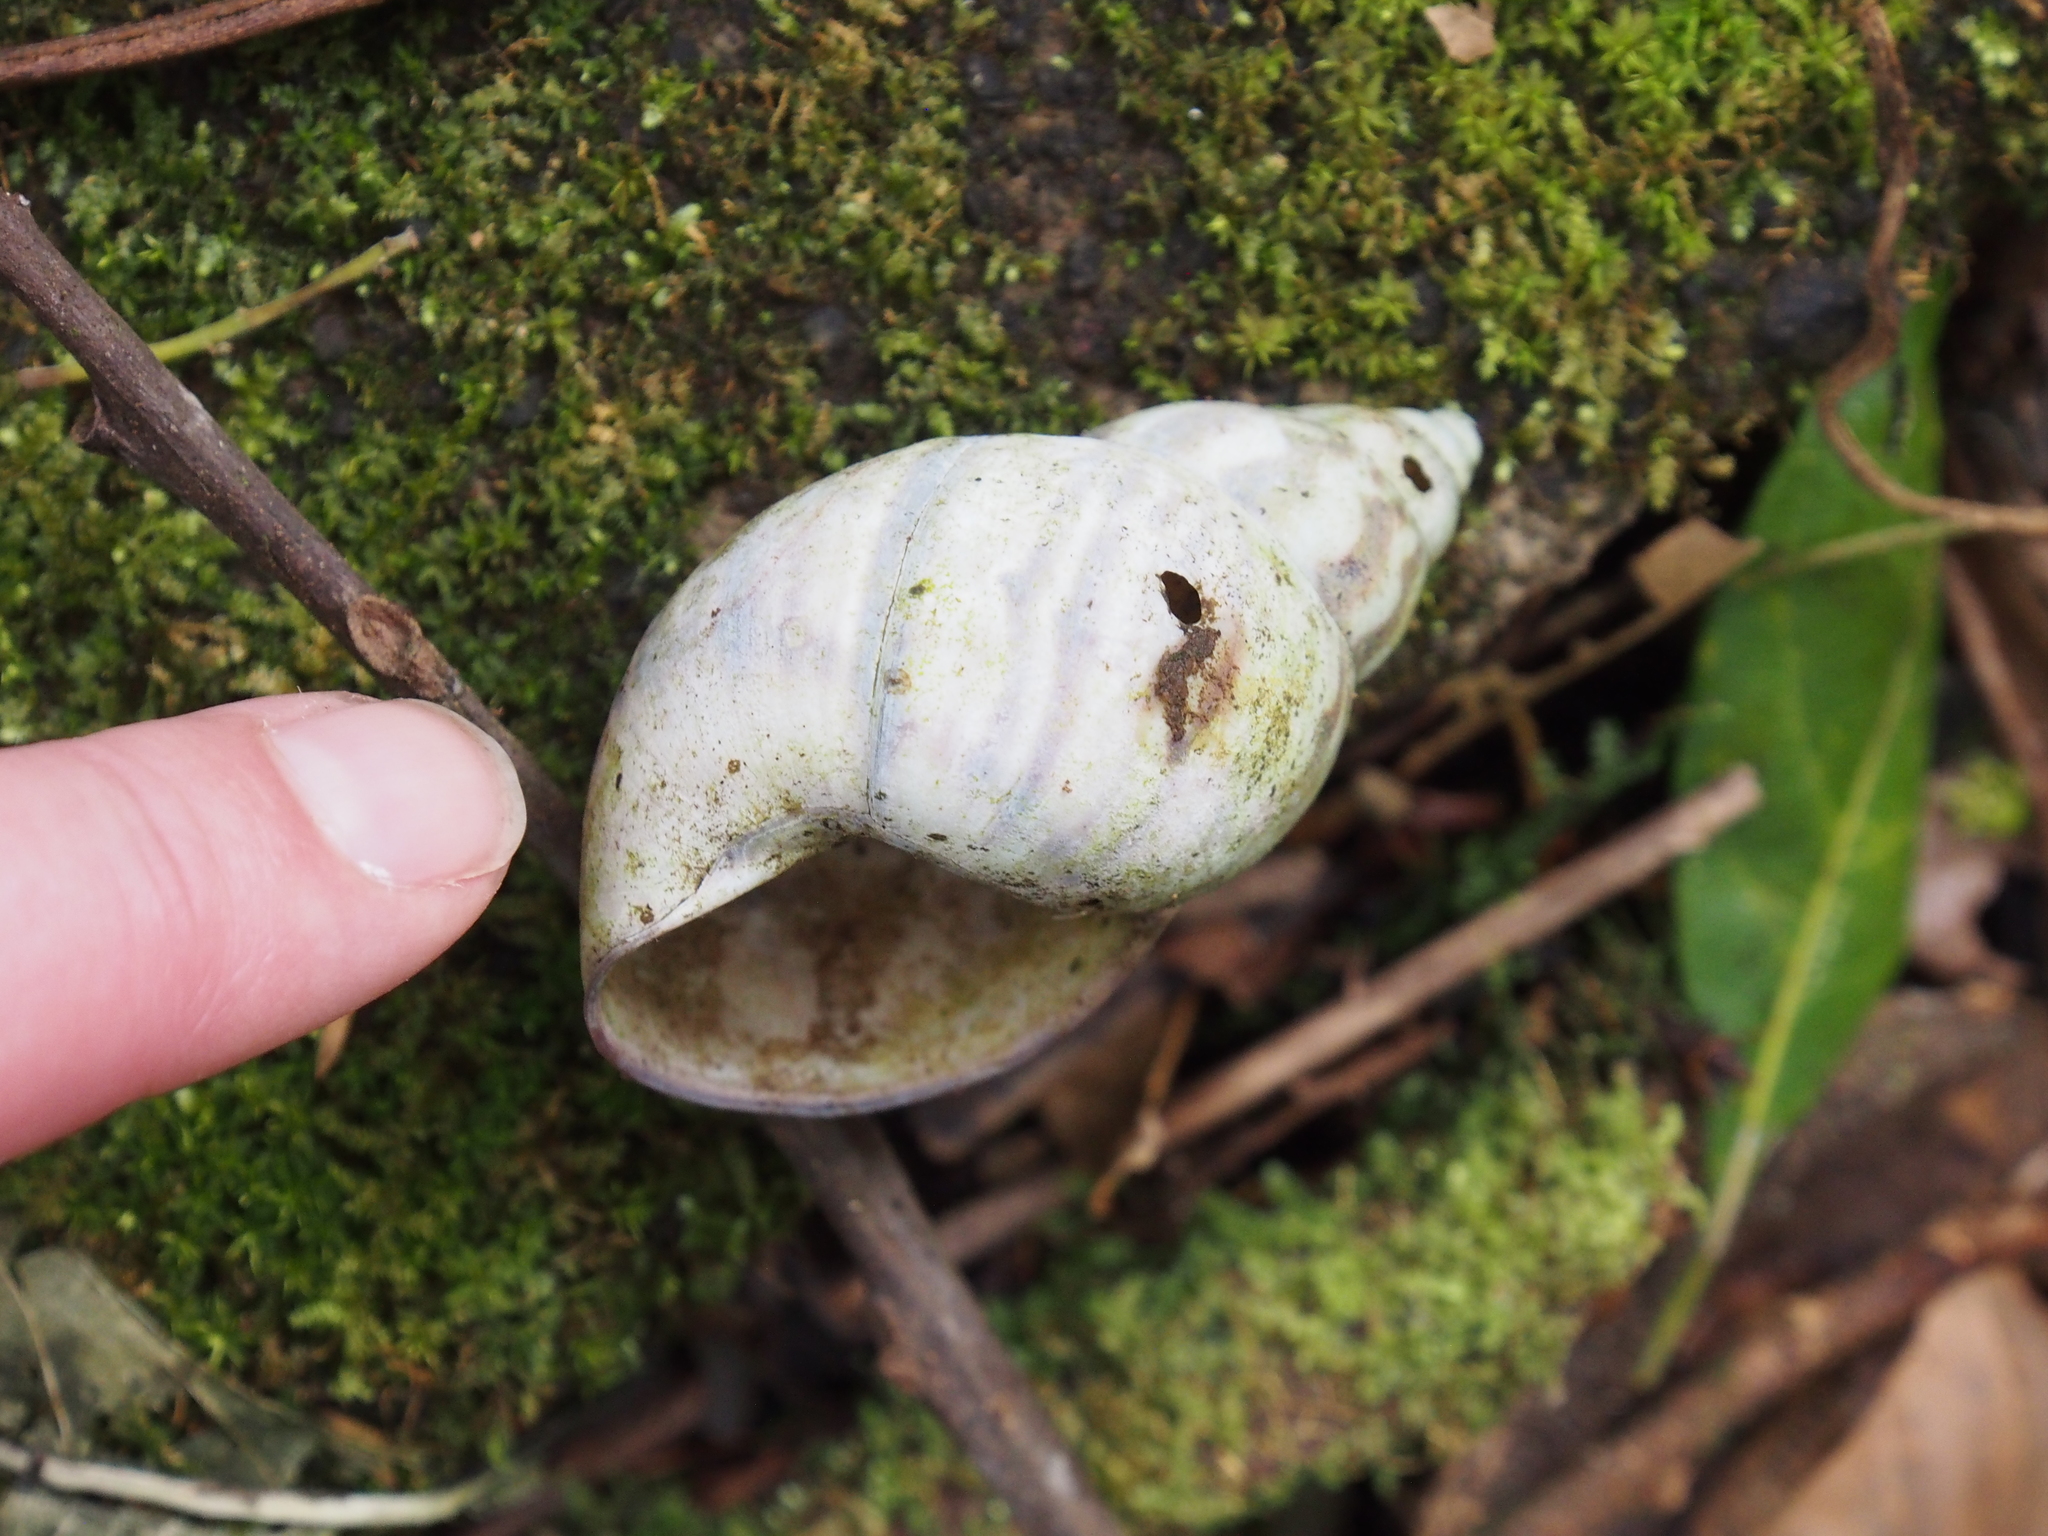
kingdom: Animalia
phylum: Mollusca
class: Gastropoda
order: Stylommatophora
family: Orthalicidae
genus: Orthalicus
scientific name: Orthalicus
